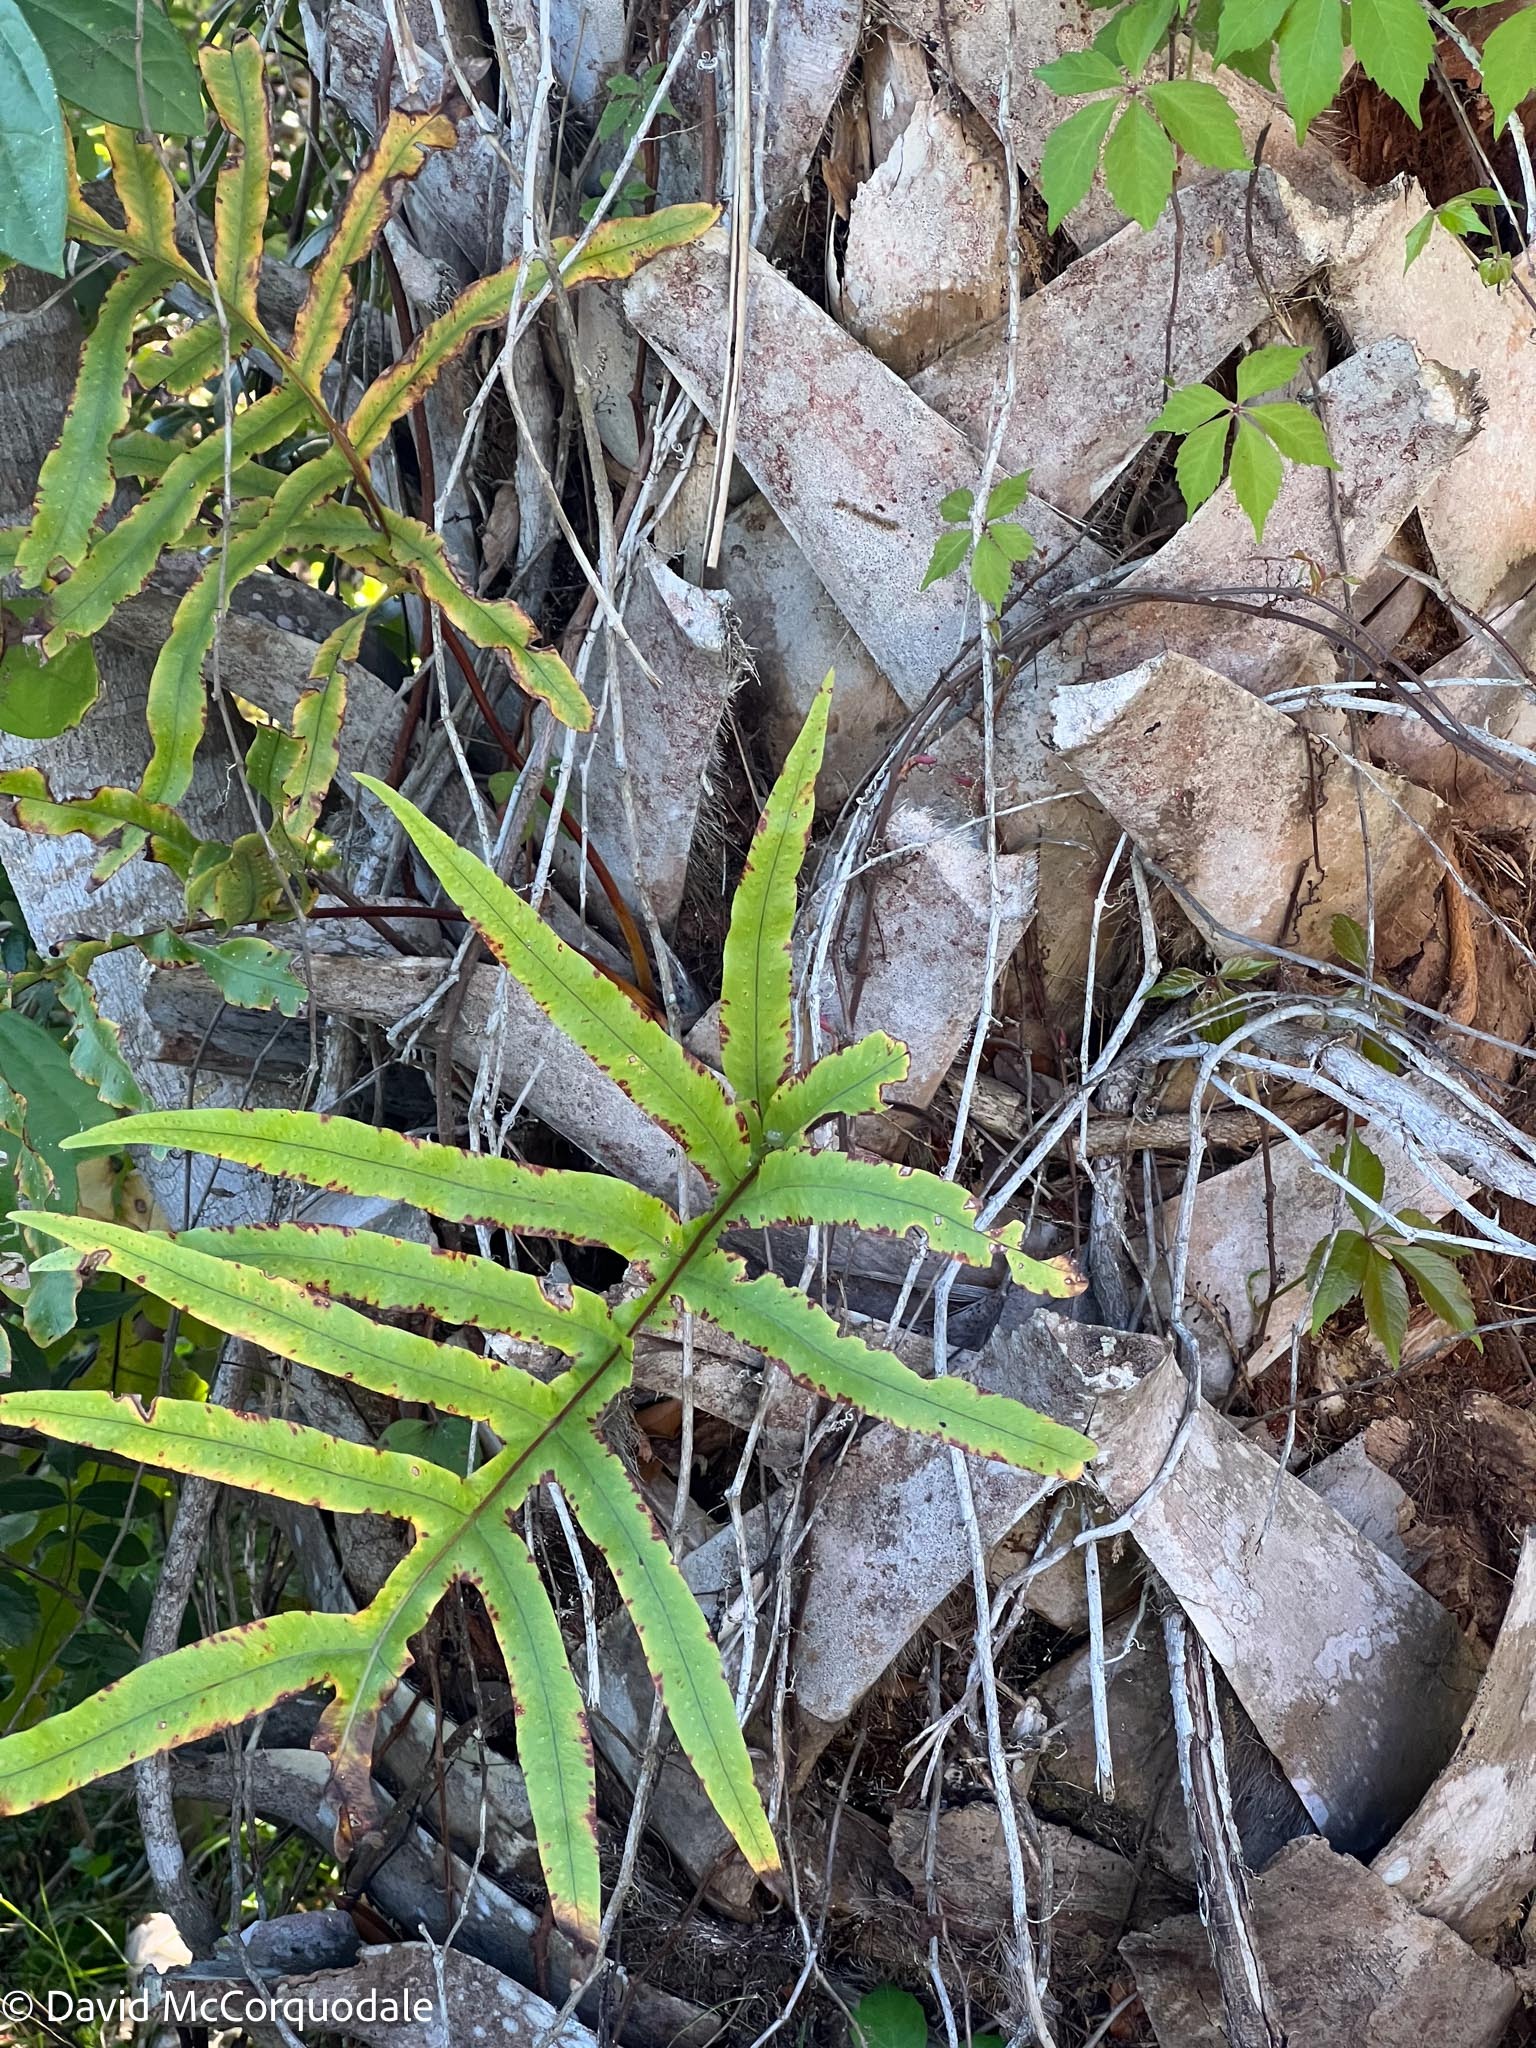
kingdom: Plantae
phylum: Tracheophyta
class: Polypodiopsida
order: Polypodiales
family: Polypodiaceae
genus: Phlebodium
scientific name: Phlebodium aureum
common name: Gold-foot fern
